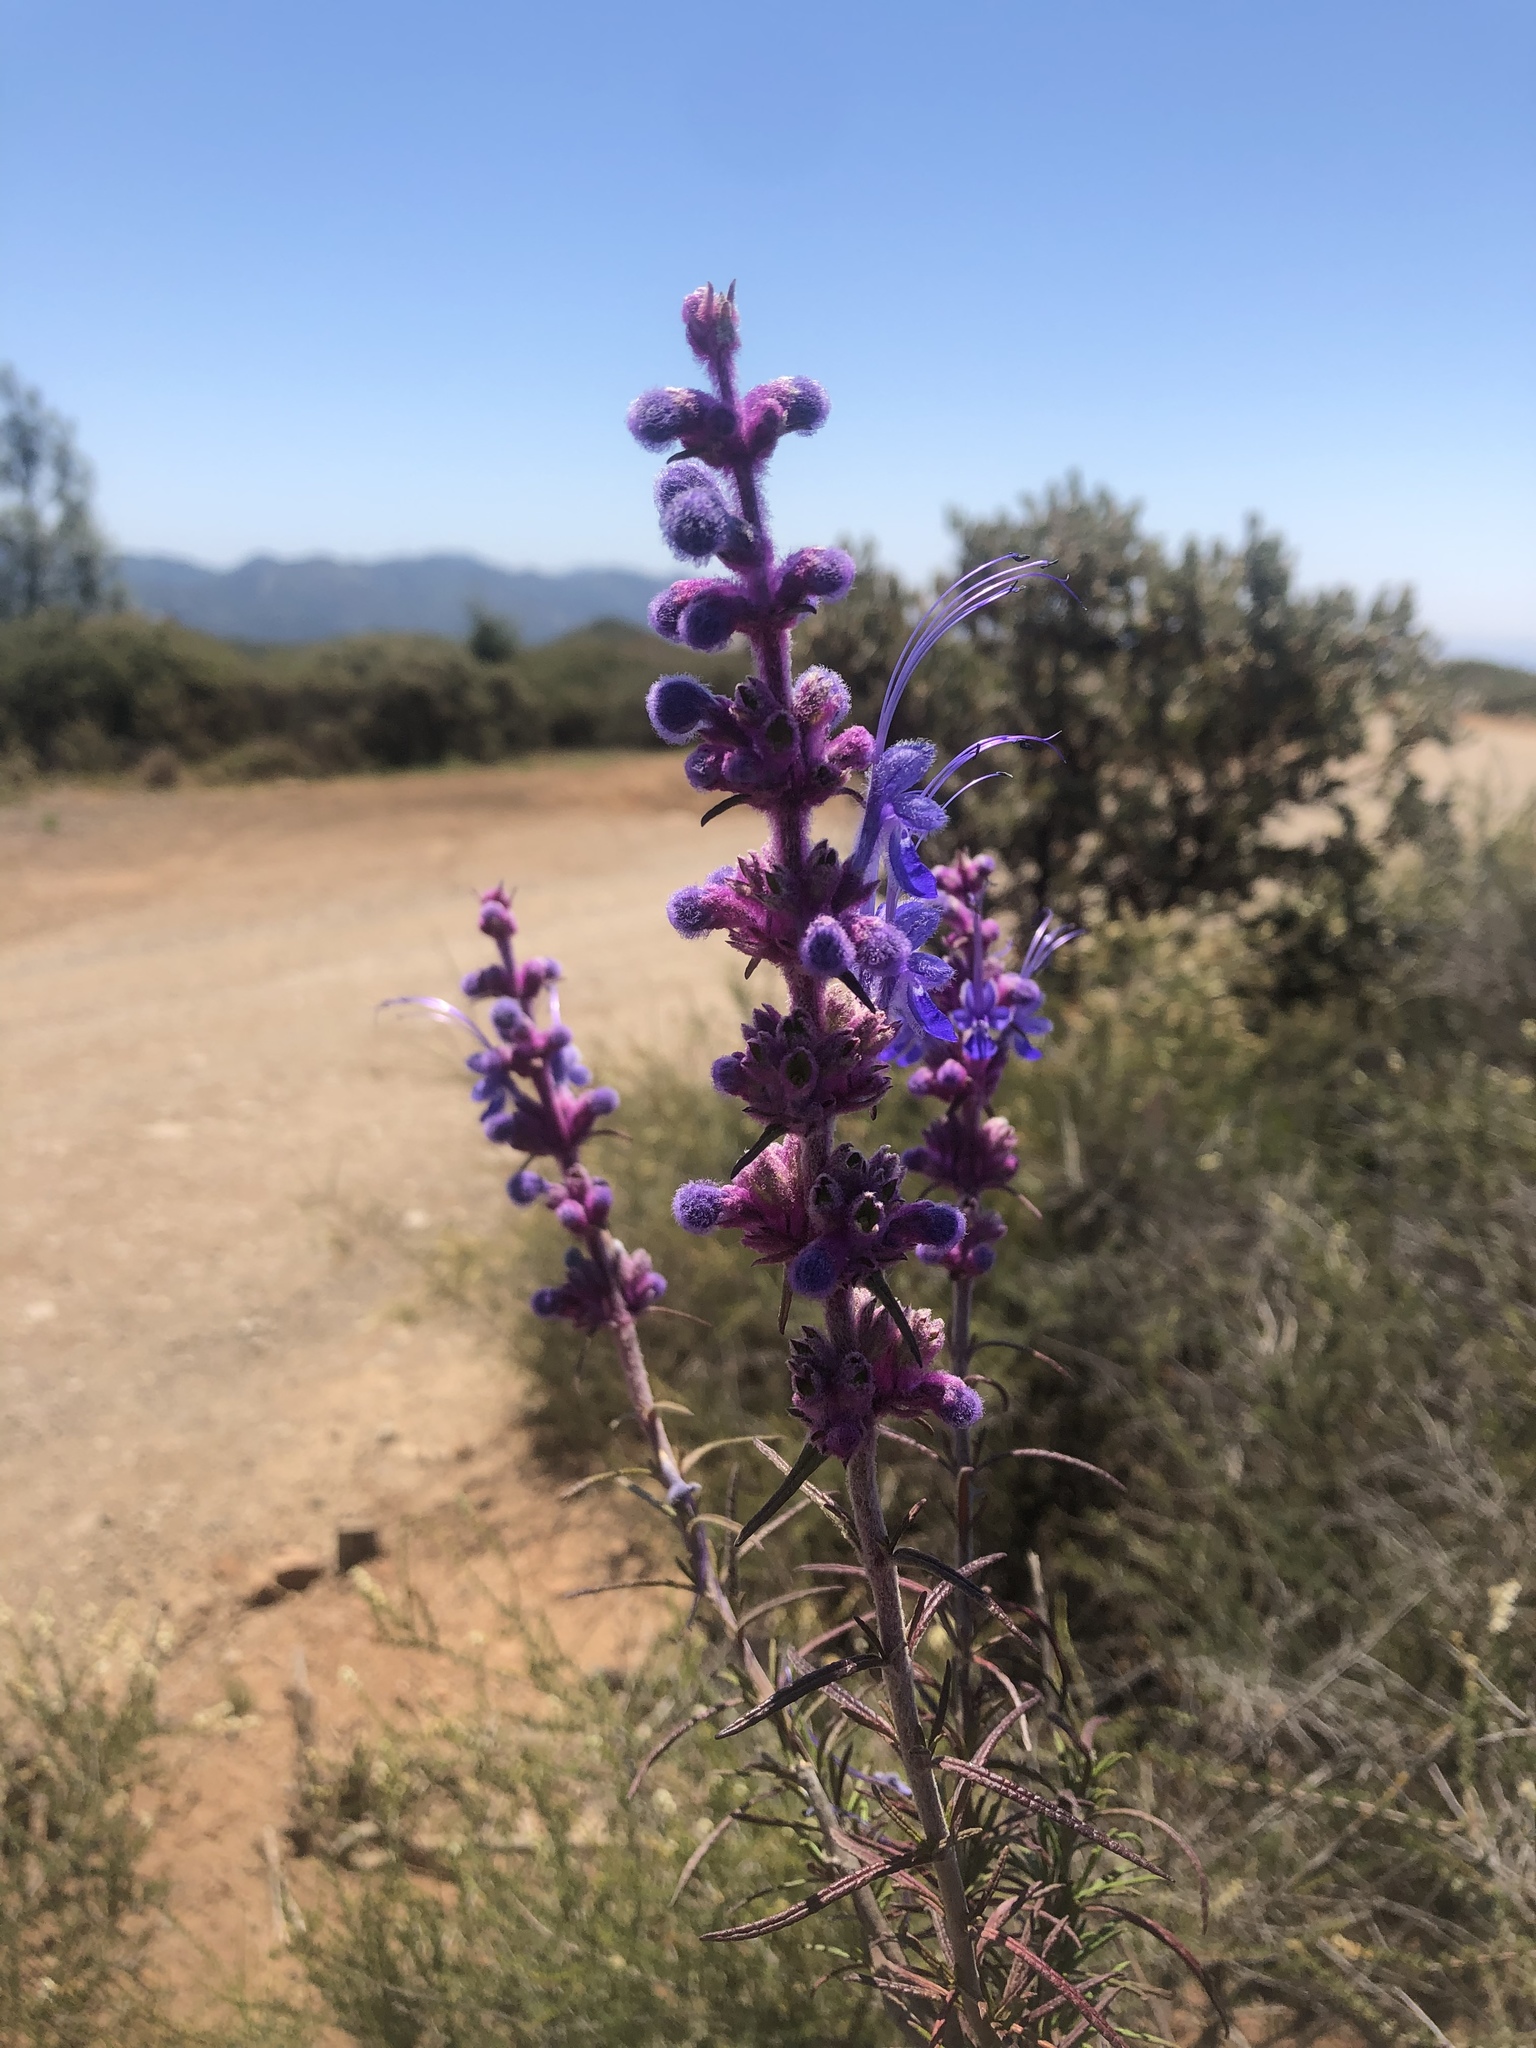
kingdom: Plantae
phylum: Tracheophyta
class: Magnoliopsida
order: Lamiales
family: Lamiaceae
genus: Trichostema
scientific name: Trichostema lanatum
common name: Woolly bluecurls
